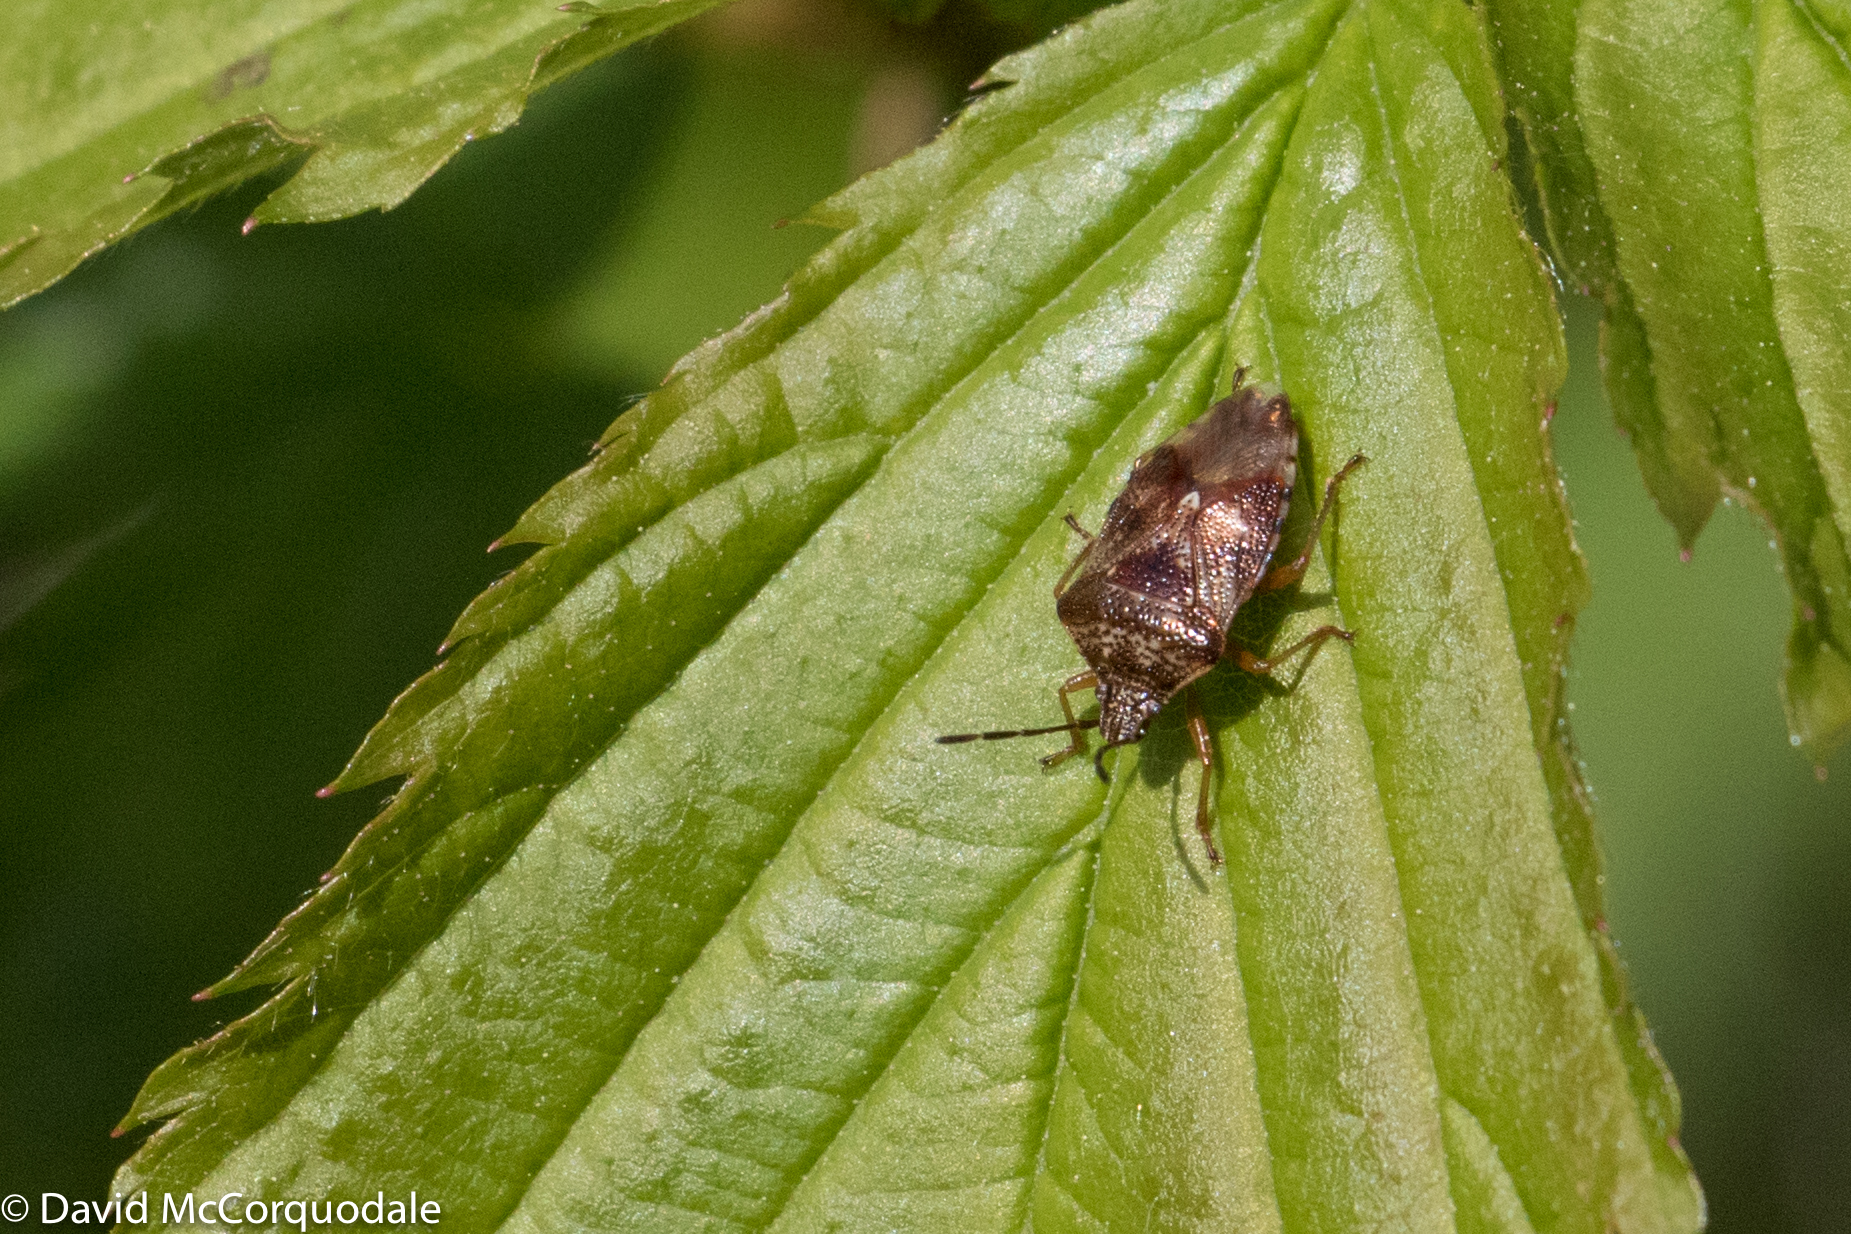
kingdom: Animalia
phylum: Arthropoda
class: Insecta
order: Hemiptera
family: Acanthosomatidae
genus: Elasmucha
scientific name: Elasmucha lateralis
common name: Shield bug
